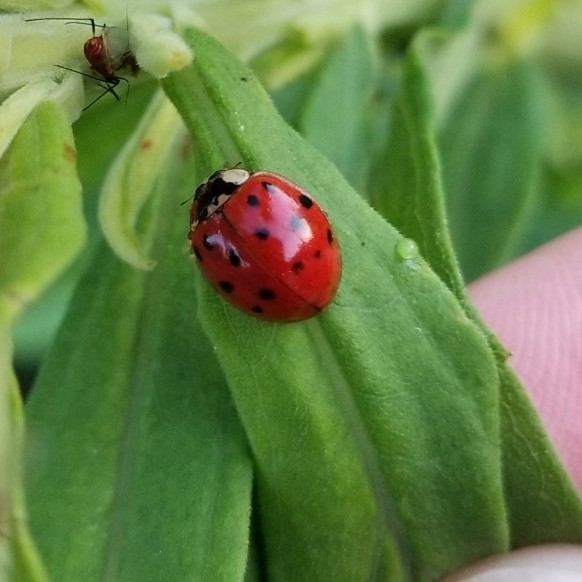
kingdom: Animalia
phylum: Arthropoda
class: Insecta
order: Coleoptera
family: Coccinellidae
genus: Harmonia
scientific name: Harmonia axyridis
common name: Harlequin ladybird
